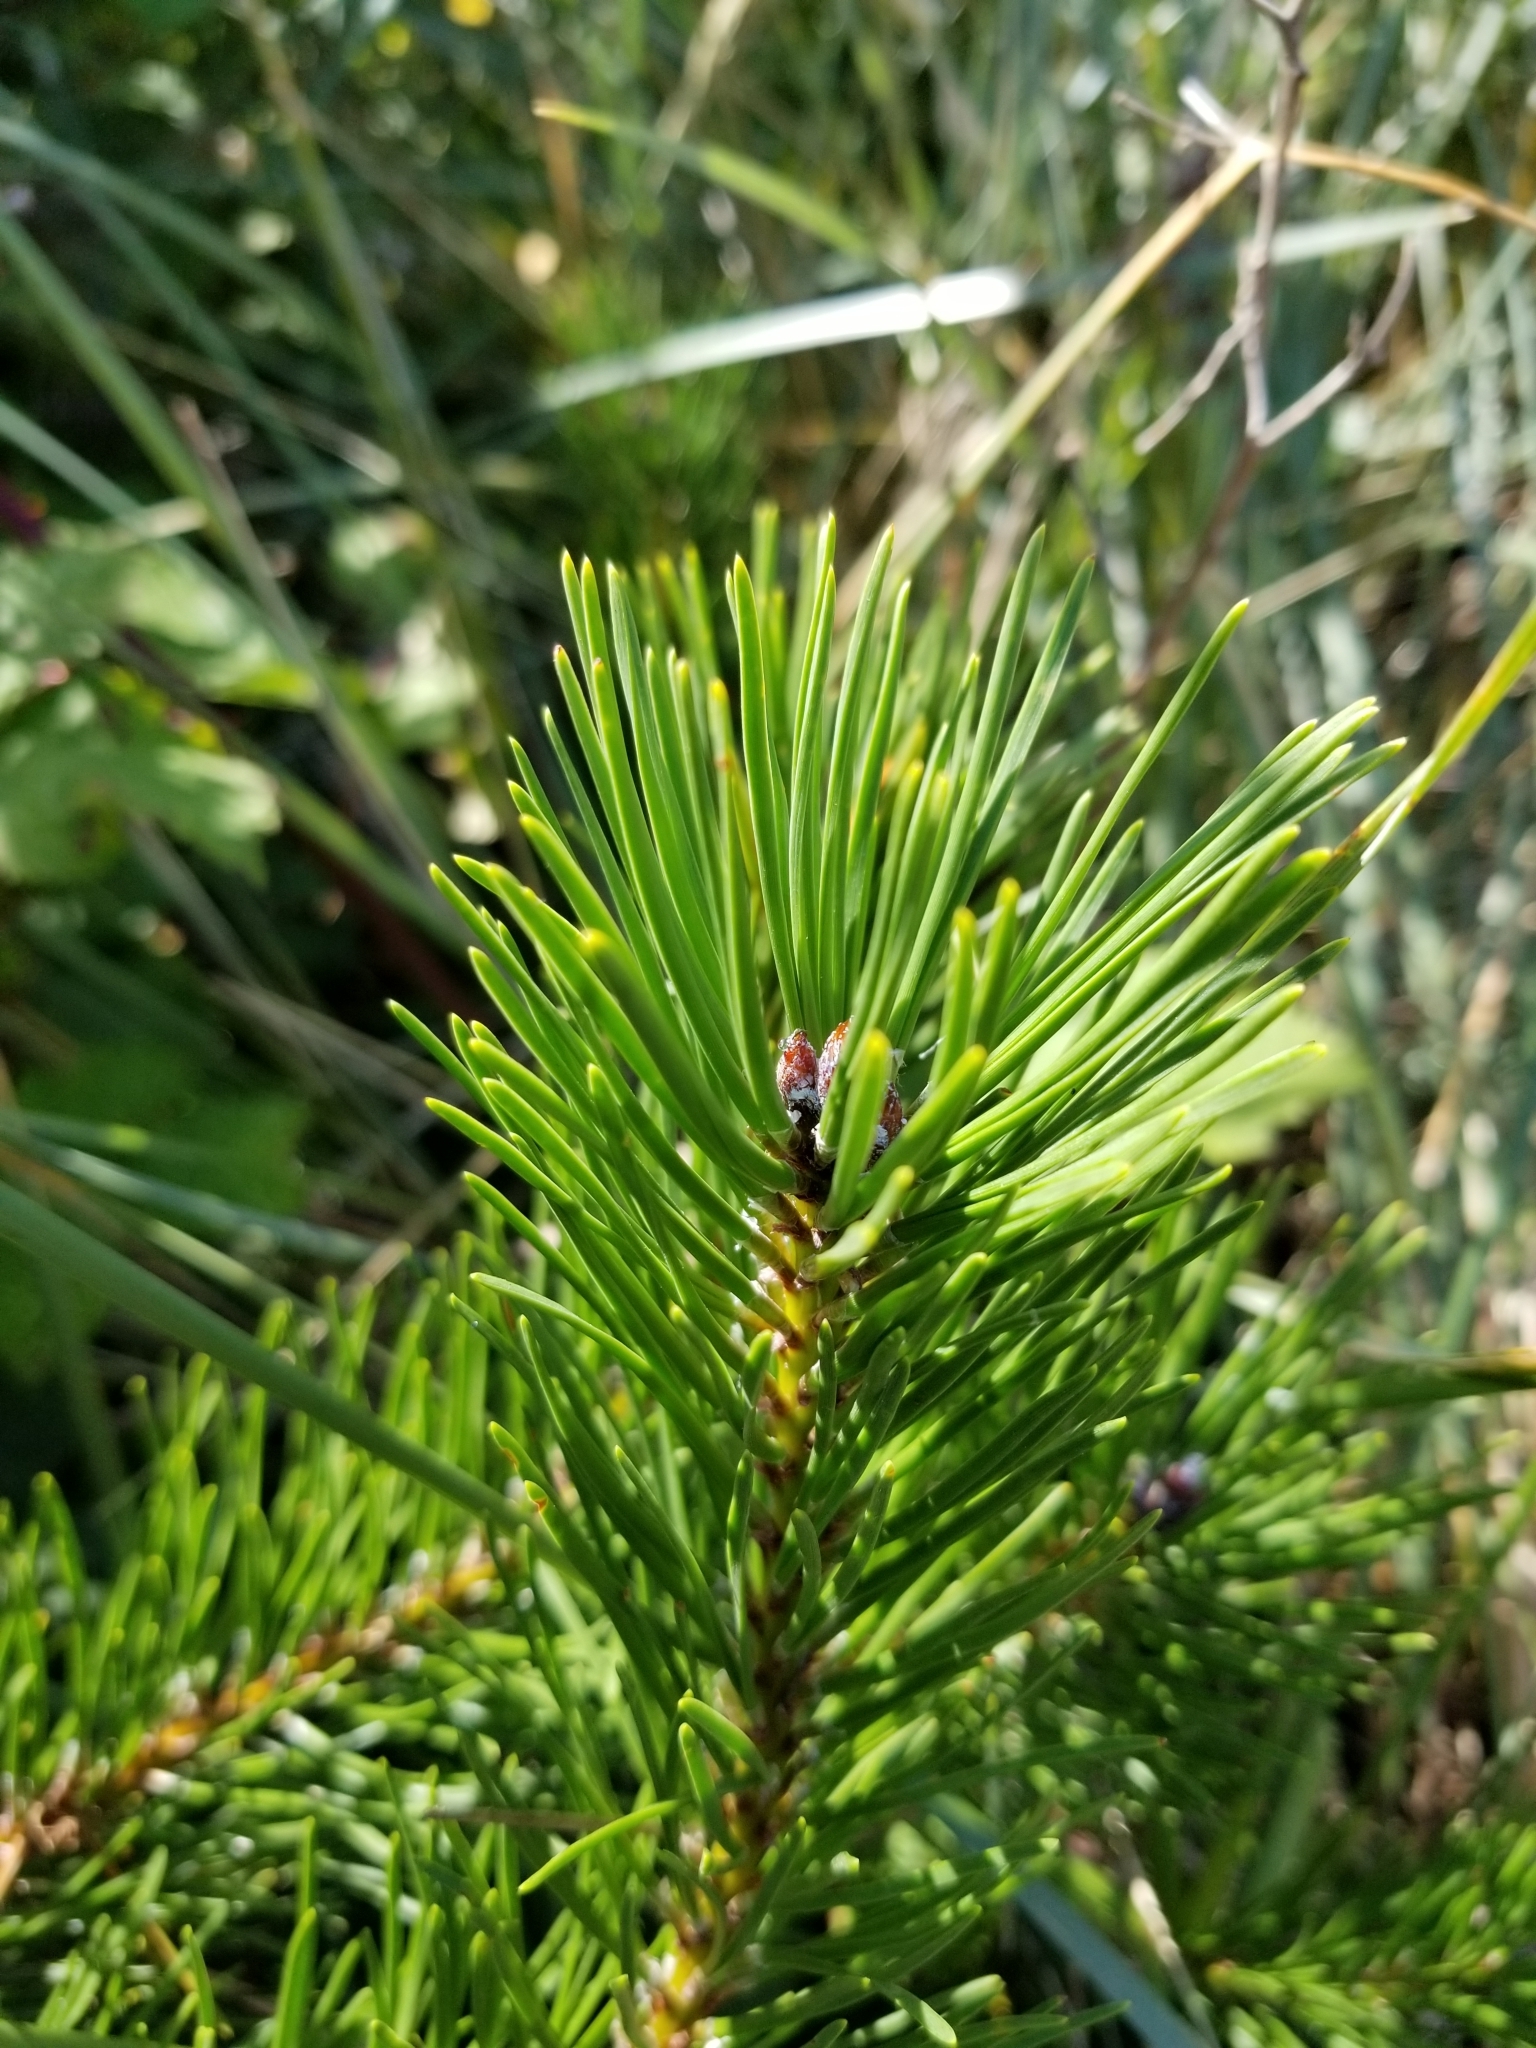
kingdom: Plantae
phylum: Tracheophyta
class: Pinopsida
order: Pinales
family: Pinaceae
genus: Pinus
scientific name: Pinus contorta
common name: Lodgepole pine
